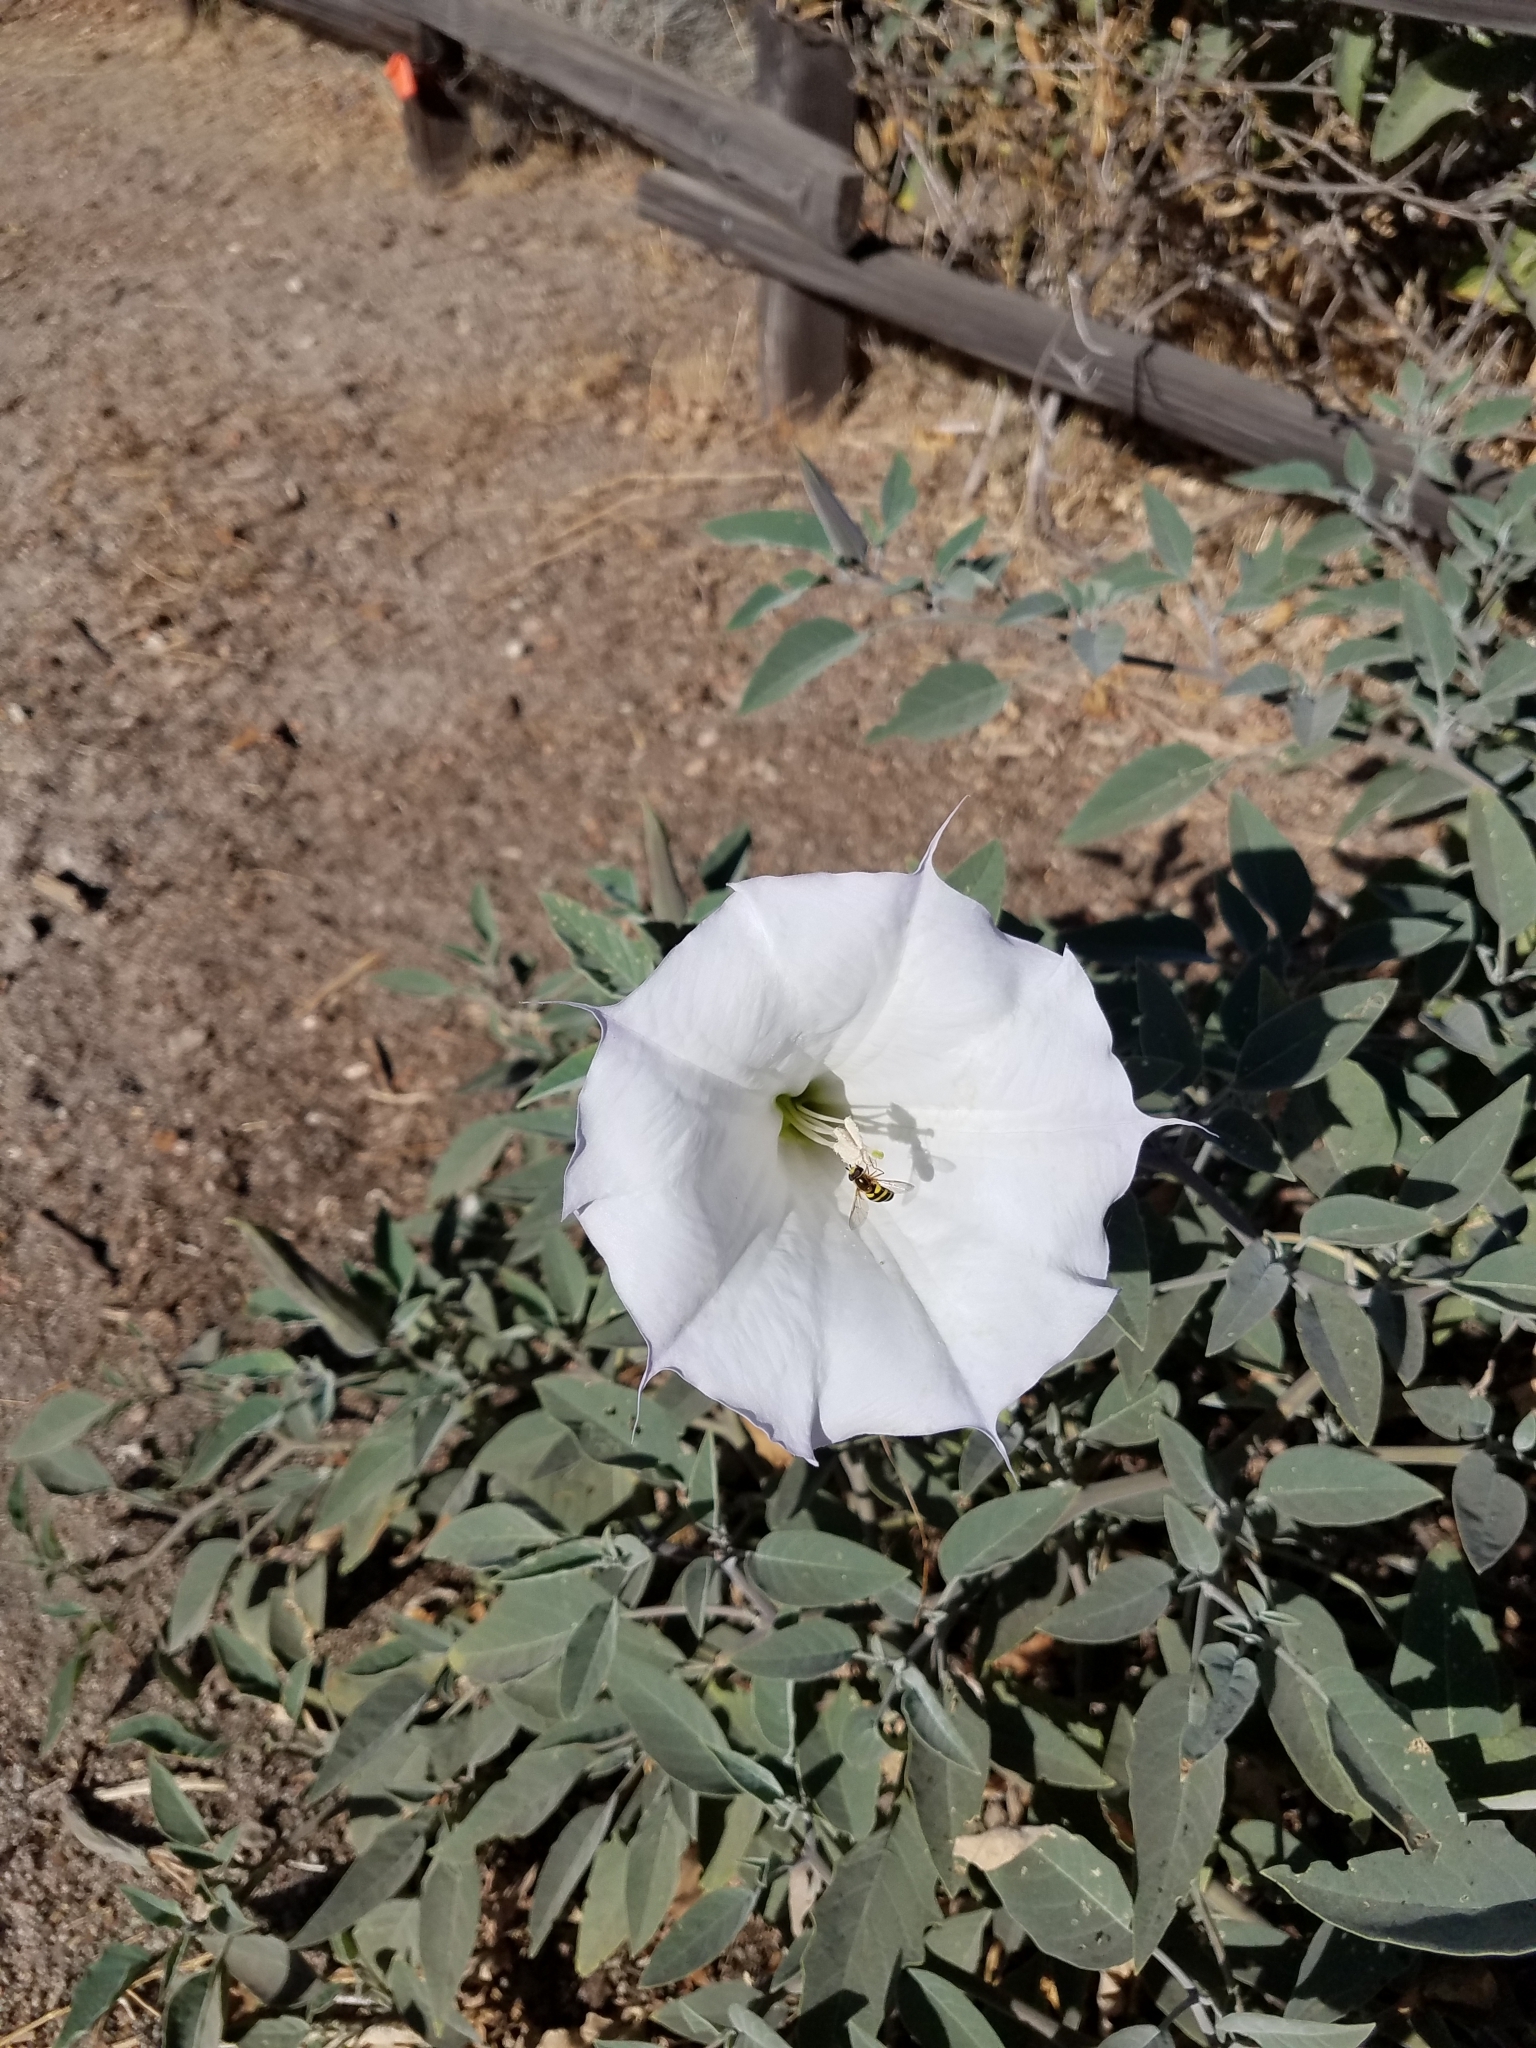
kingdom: Plantae
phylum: Tracheophyta
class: Magnoliopsida
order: Solanales
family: Solanaceae
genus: Datura
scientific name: Datura wrightii
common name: Sacred thorn-apple
